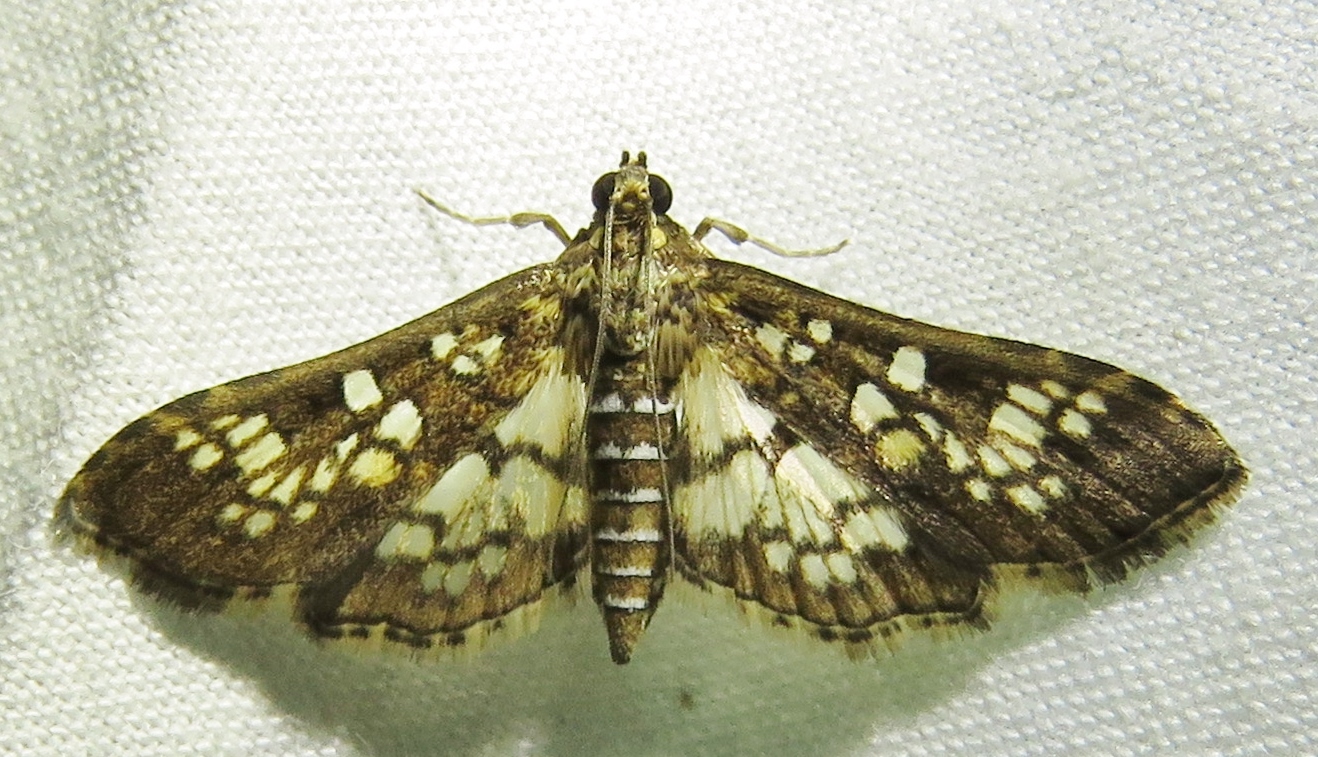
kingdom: Animalia
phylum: Arthropoda
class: Insecta
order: Lepidoptera
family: Crambidae
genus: Samea
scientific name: Samea ecclesialis
